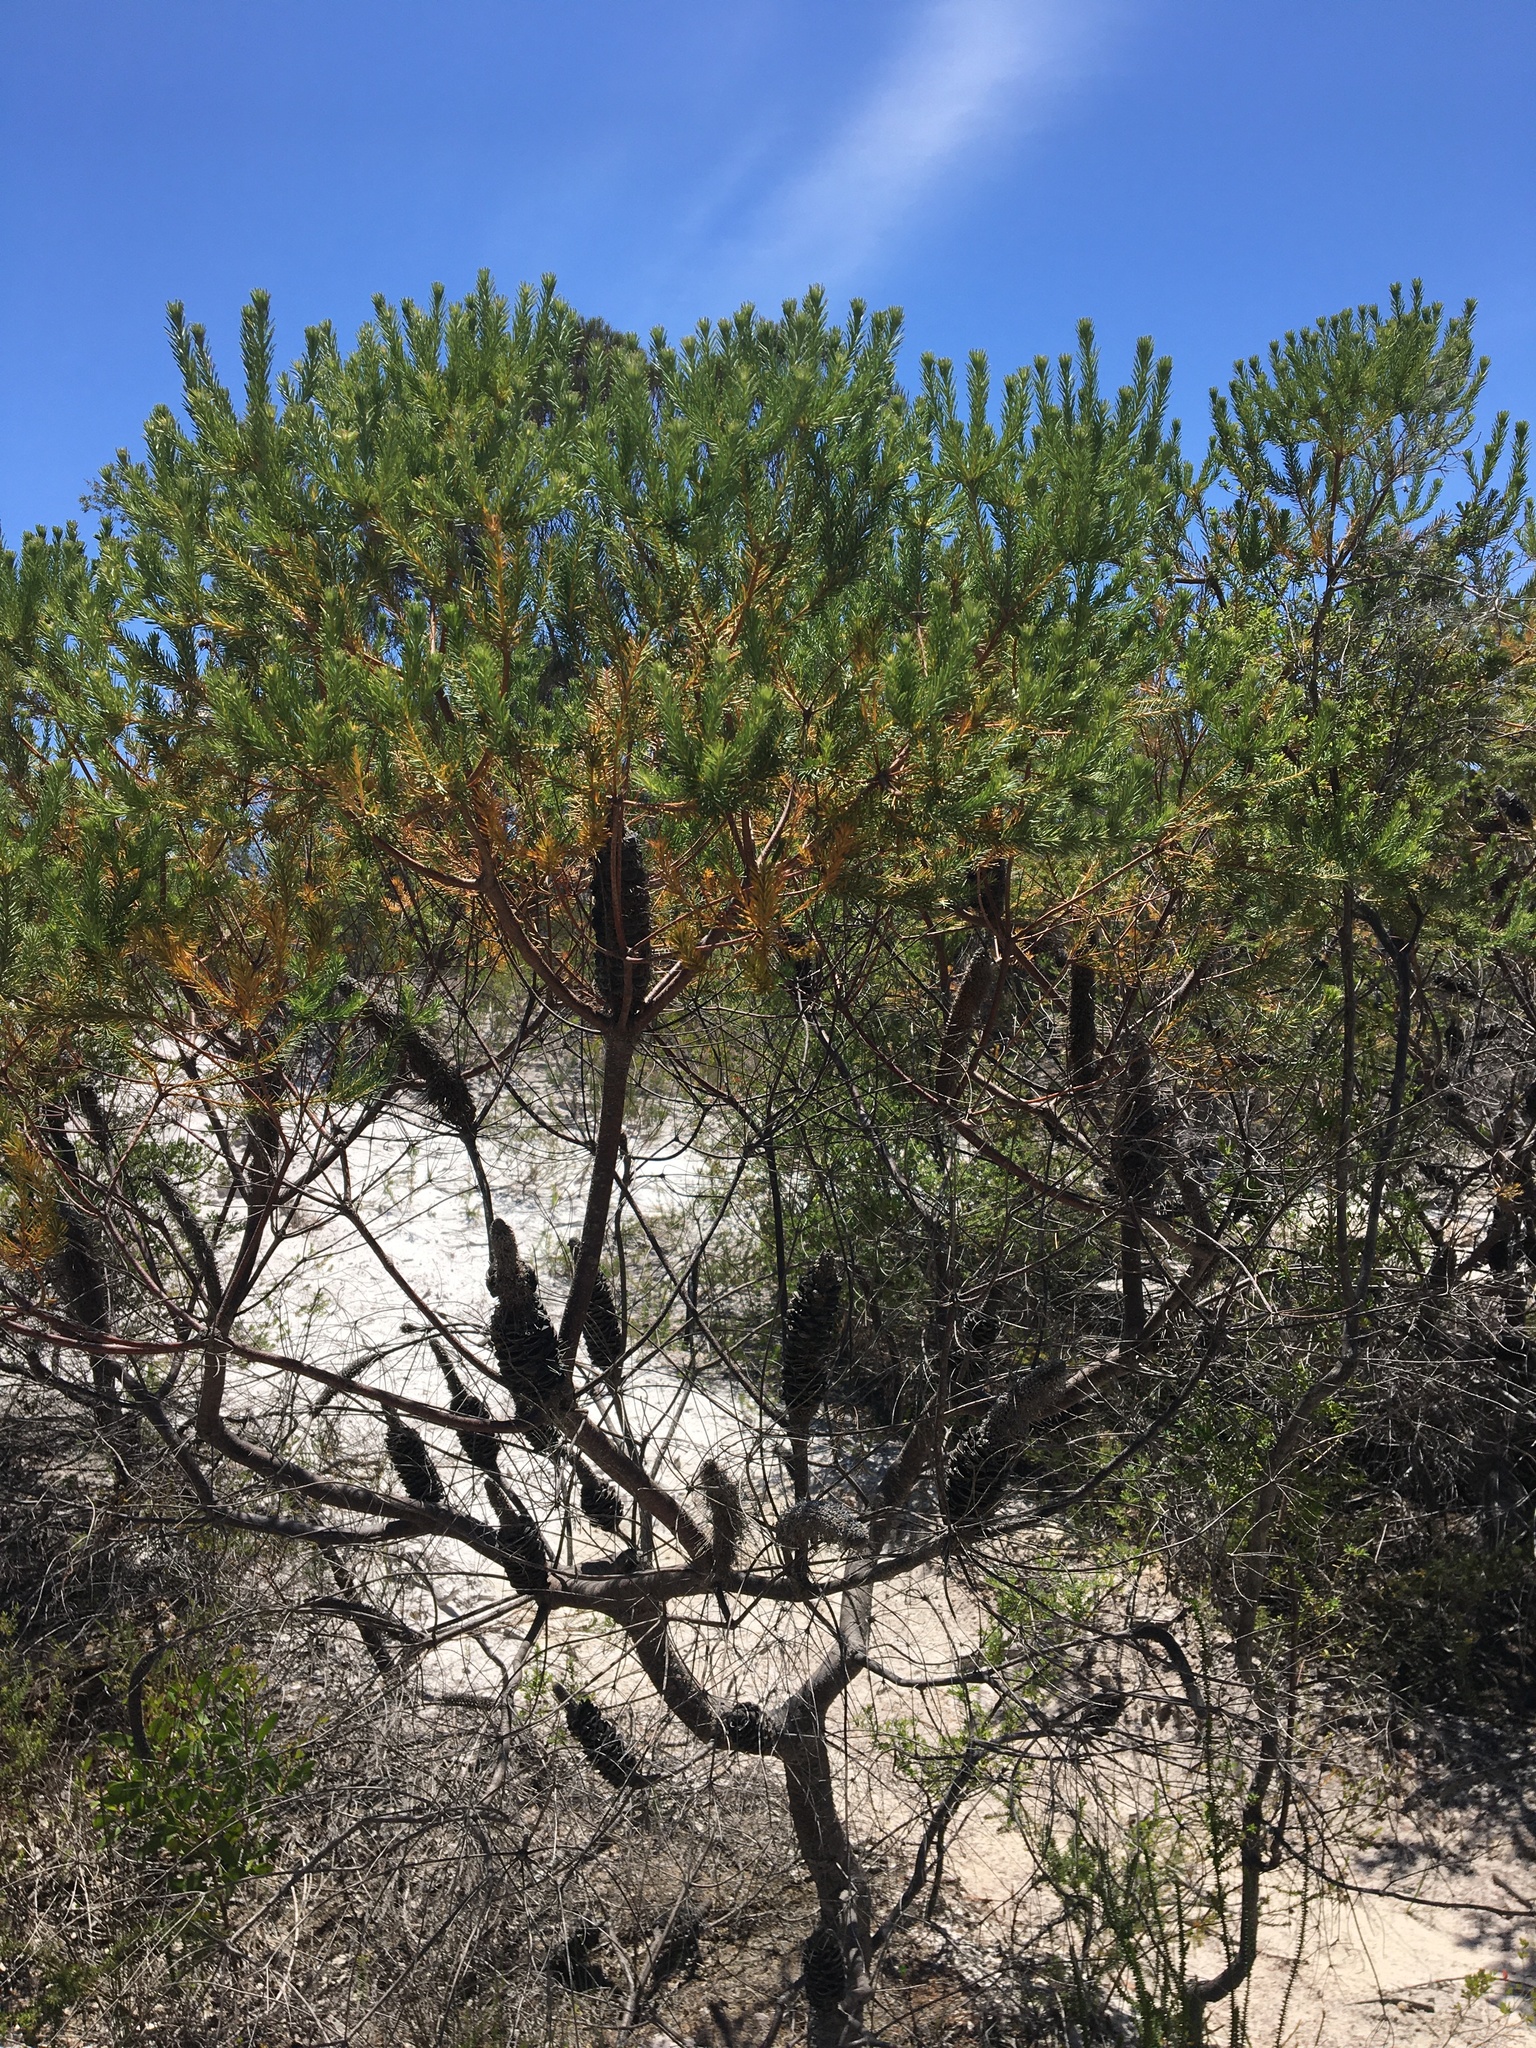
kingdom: Plantae
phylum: Tracheophyta
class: Magnoliopsida
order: Proteales
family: Proteaceae
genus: Banksia
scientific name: Banksia ericifolia
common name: Heath-leaf banksia
